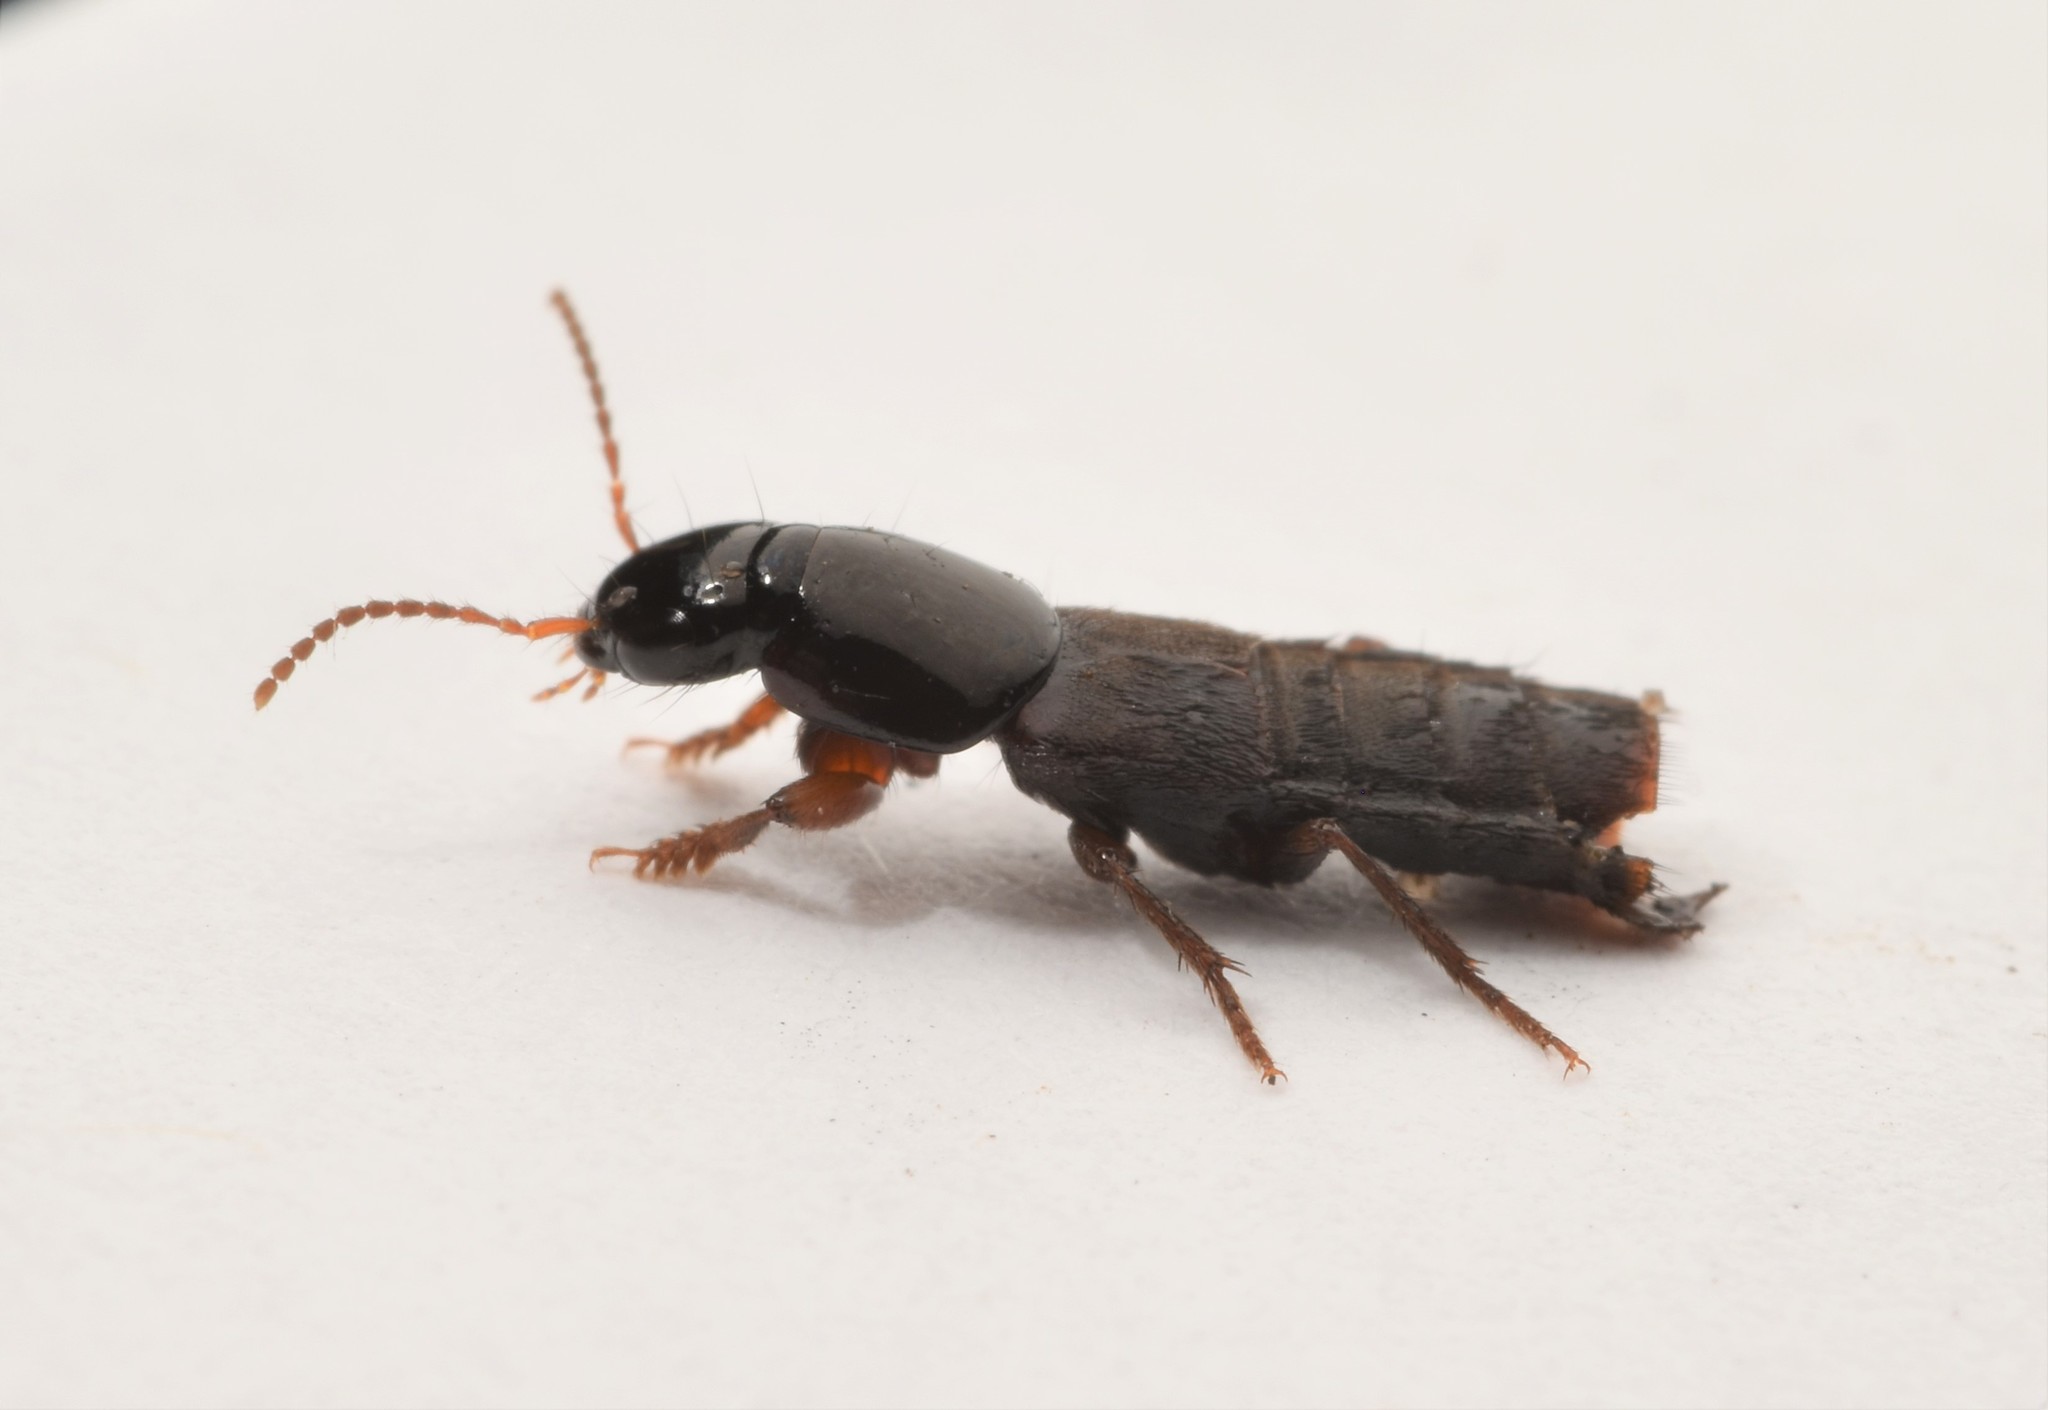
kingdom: Animalia
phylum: Arthropoda
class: Insecta
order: Coleoptera
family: Staphylinidae
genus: Quedius
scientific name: Quedius laticollis
